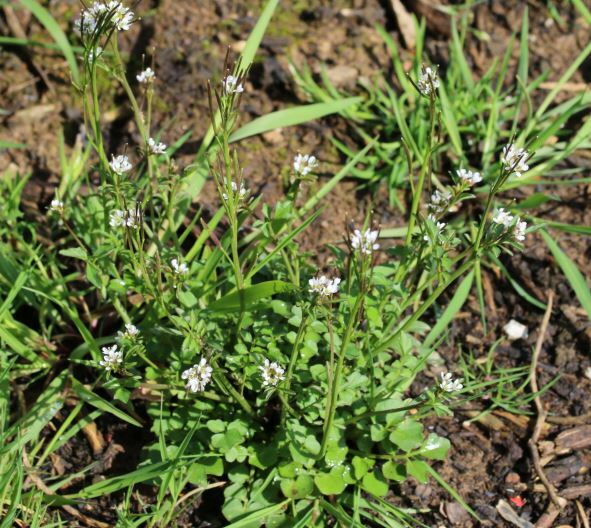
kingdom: Plantae
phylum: Tracheophyta
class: Magnoliopsida
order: Brassicales
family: Brassicaceae
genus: Cardamine
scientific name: Cardamine hirsuta
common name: Hairy bittercress
